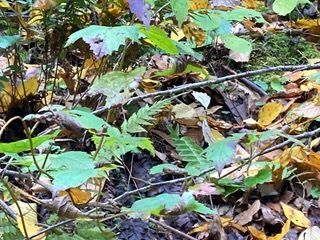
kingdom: Plantae
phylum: Tracheophyta
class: Magnoliopsida
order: Dipsacales
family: Viburnaceae
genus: Viburnum
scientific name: Viburnum acerifolium
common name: Dockmackie
